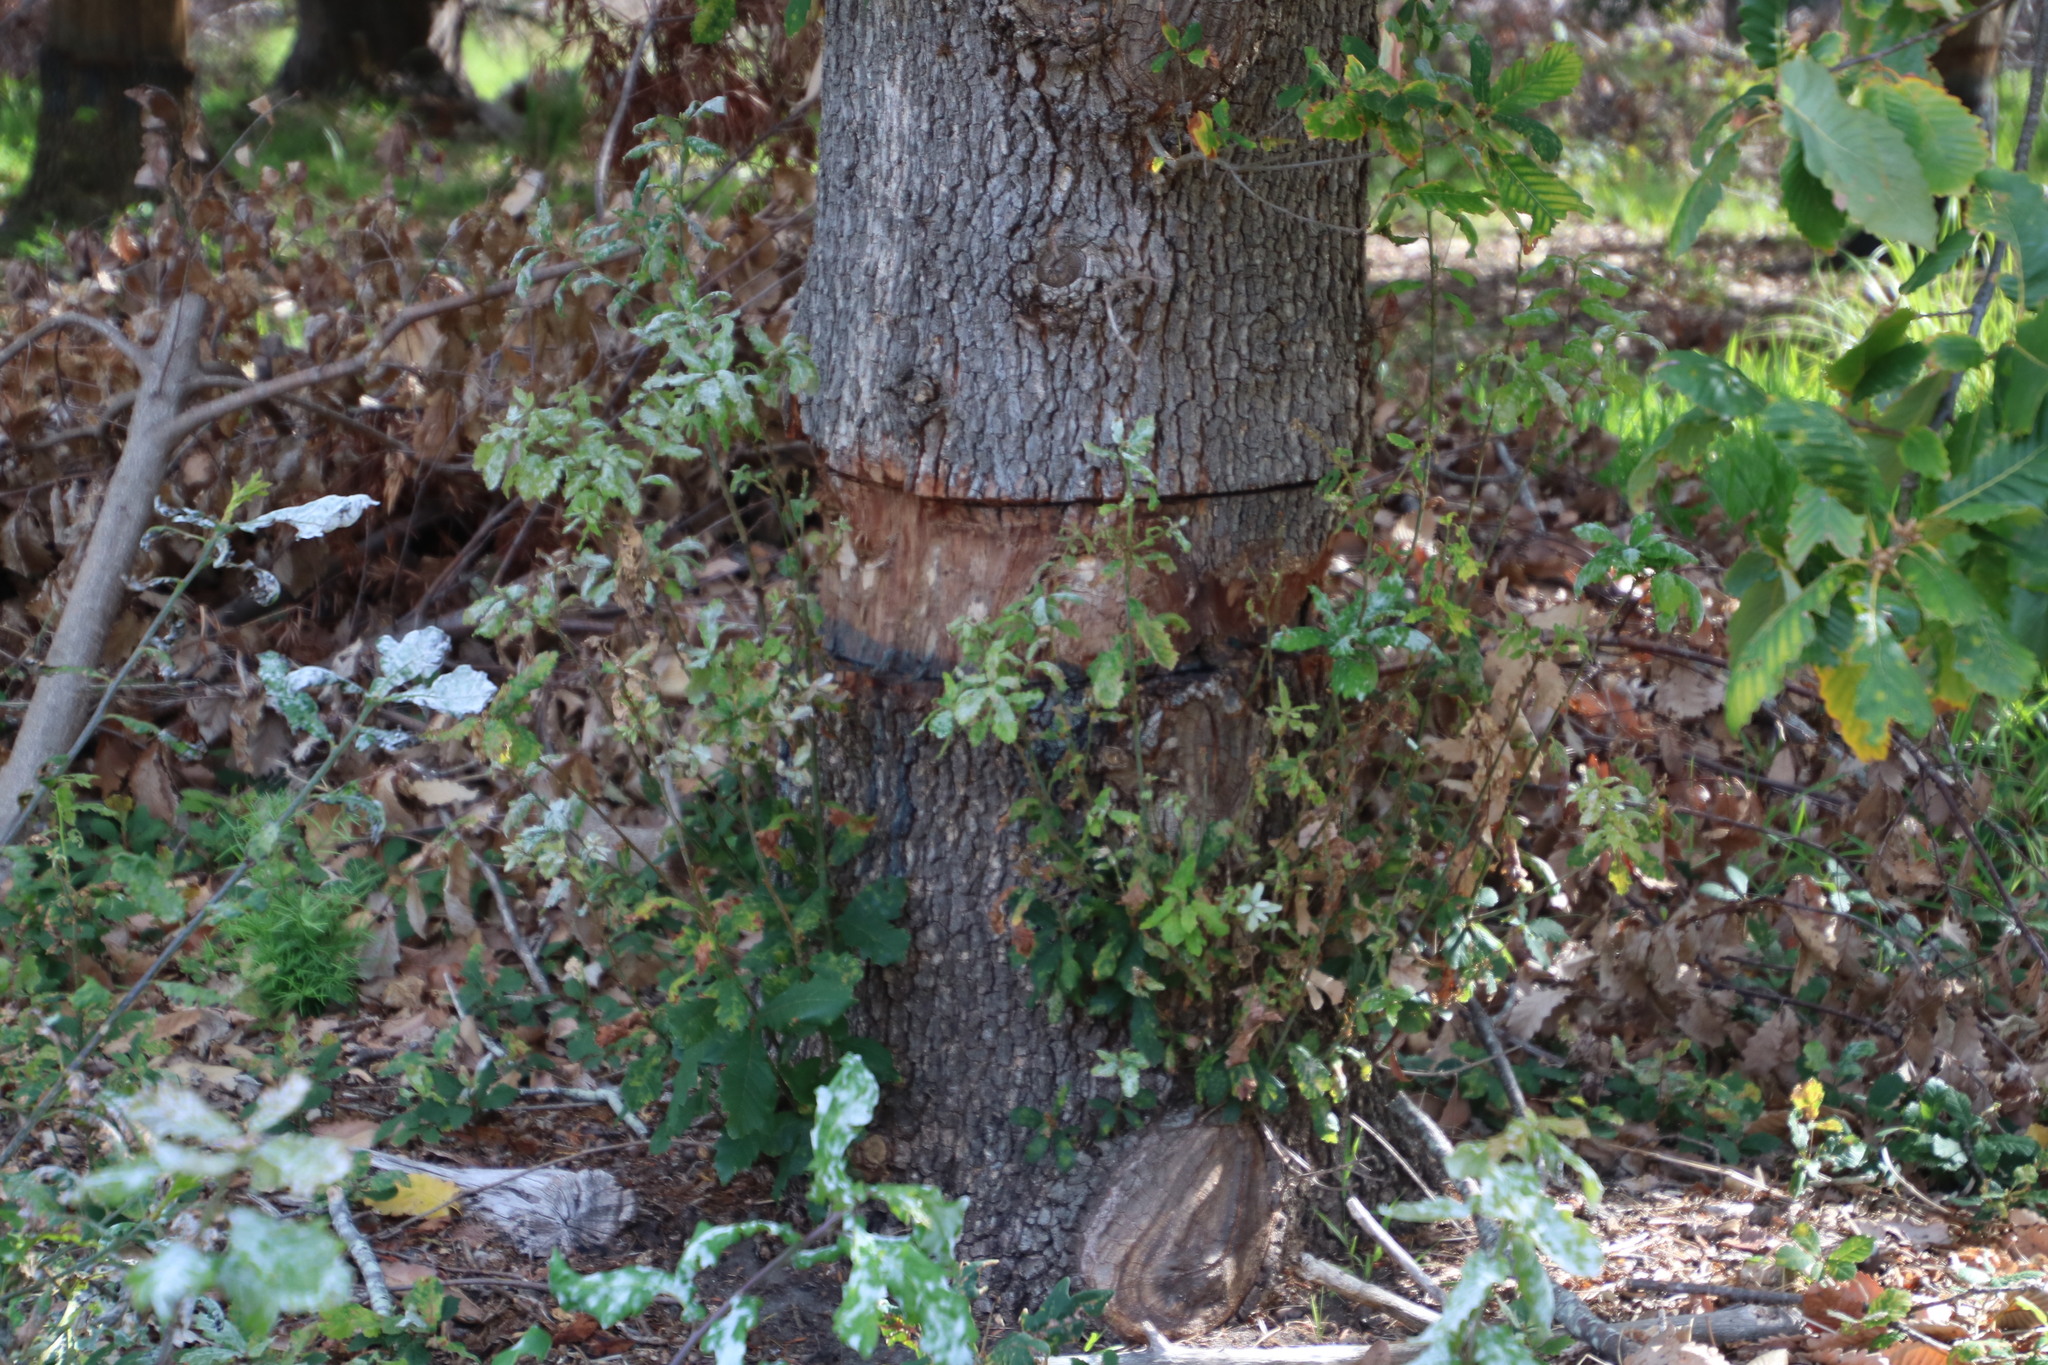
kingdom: Plantae
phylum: Tracheophyta
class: Magnoliopsida
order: Fagales
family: Fagaceae
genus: Quercus
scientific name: Quercus canariensis
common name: Algerian oak
